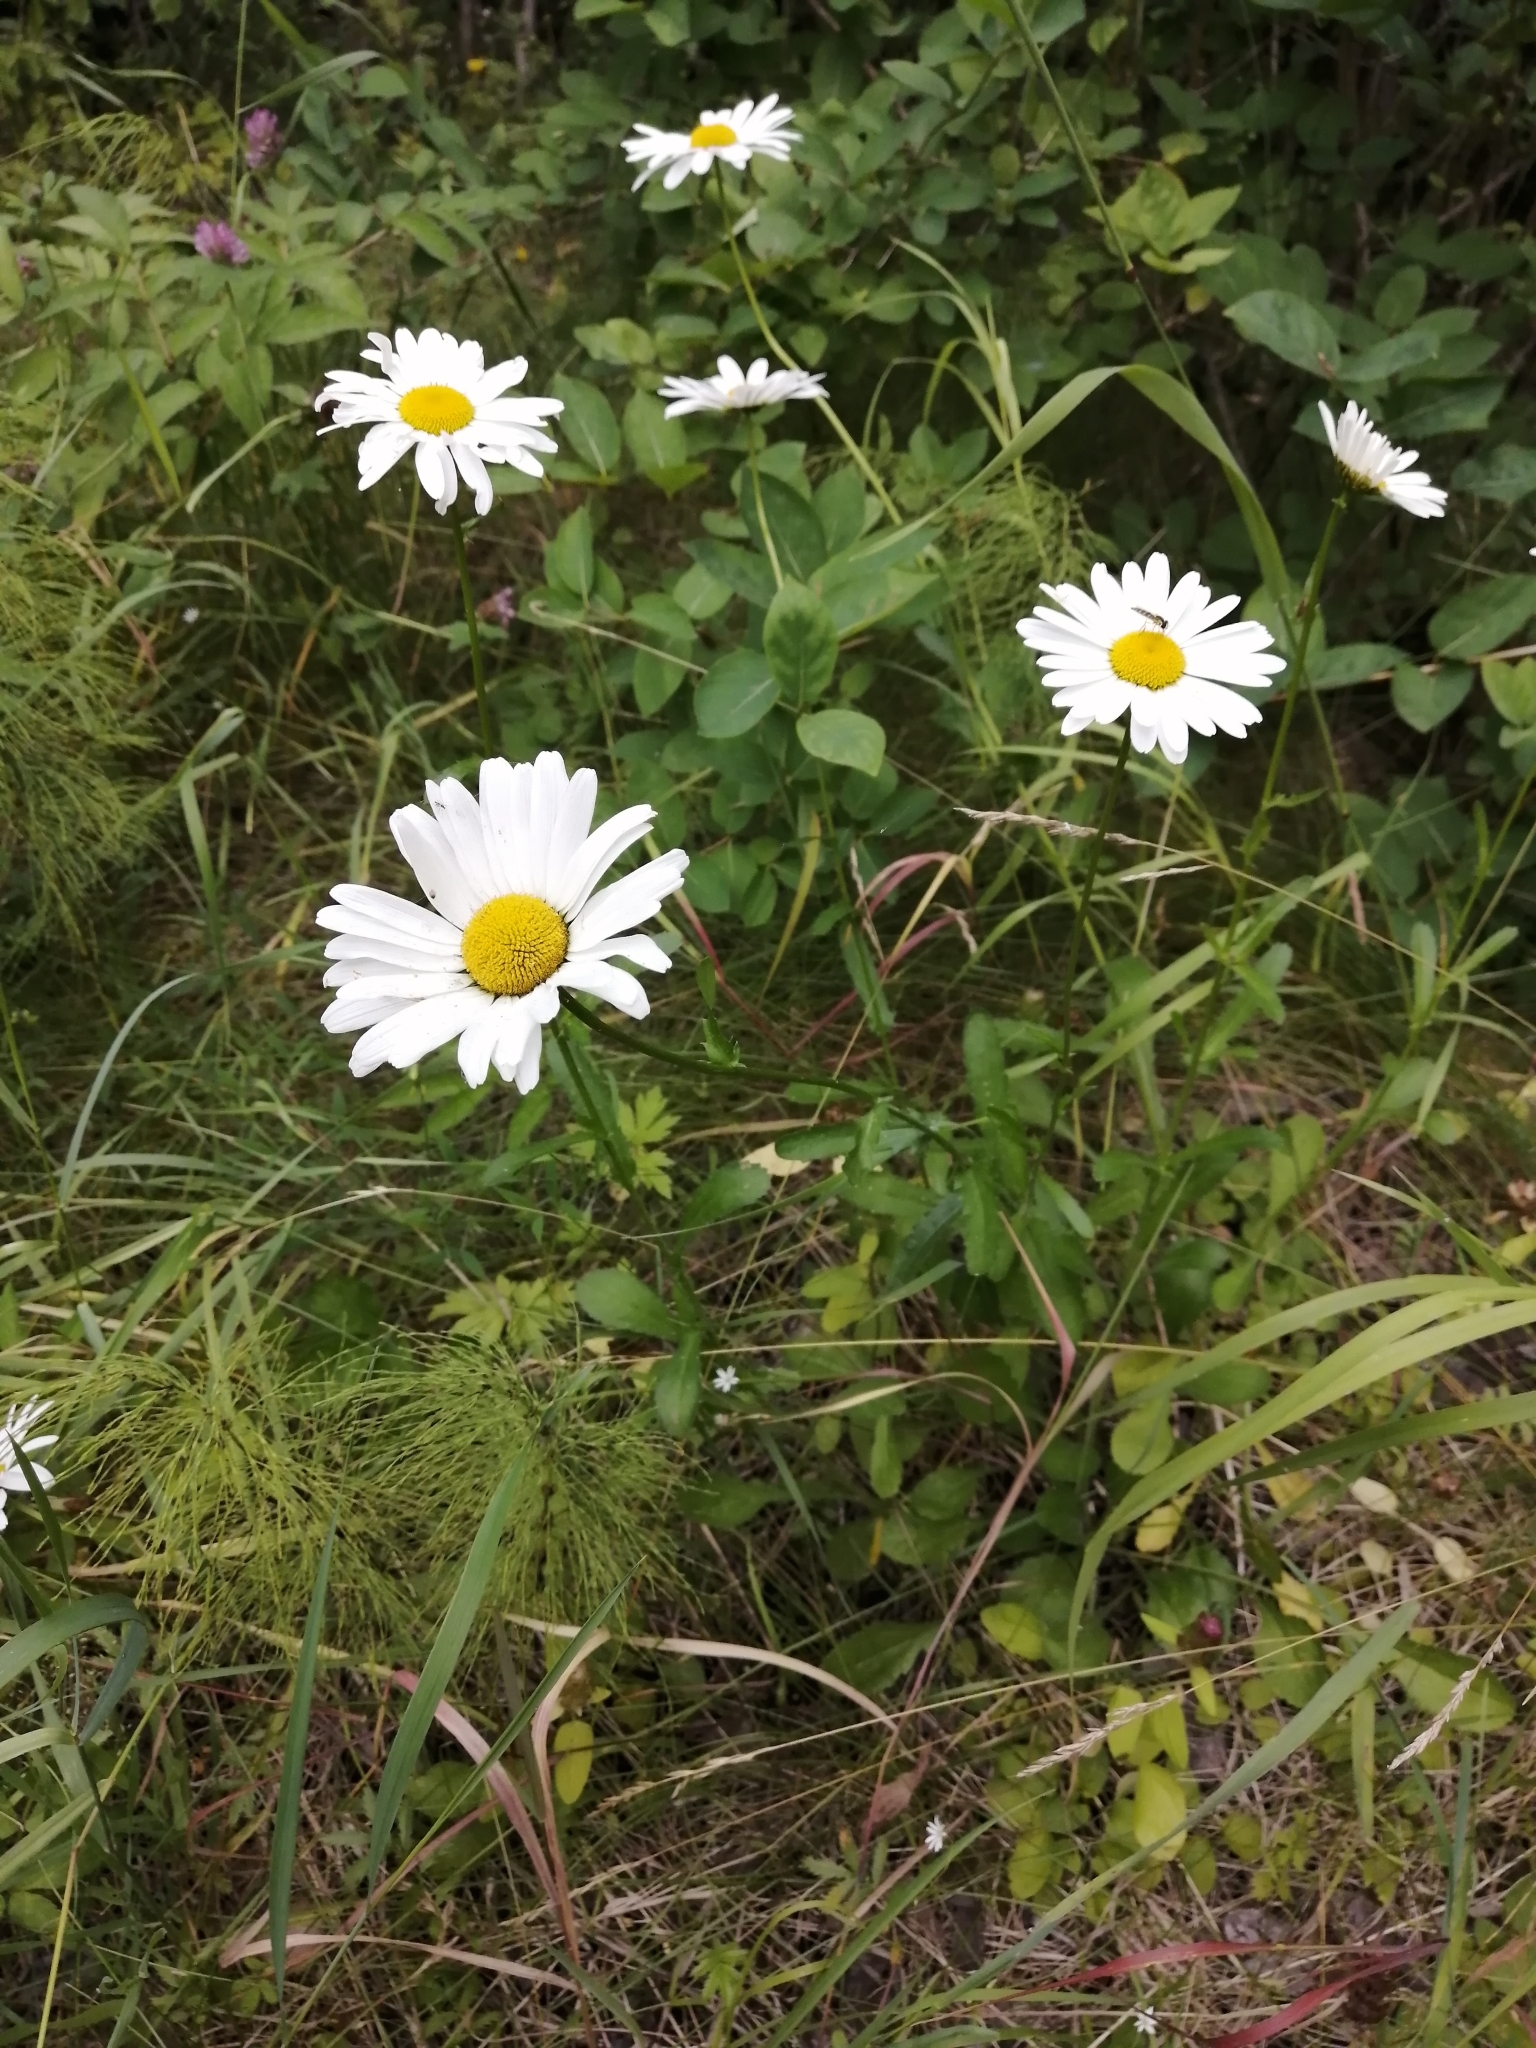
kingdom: Plantae
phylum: Tracheophyta
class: Magnoliopsida
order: Asterales
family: Asteraceae
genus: Leucanthemum
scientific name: Leucanthemum ircutianum
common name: Daisy
